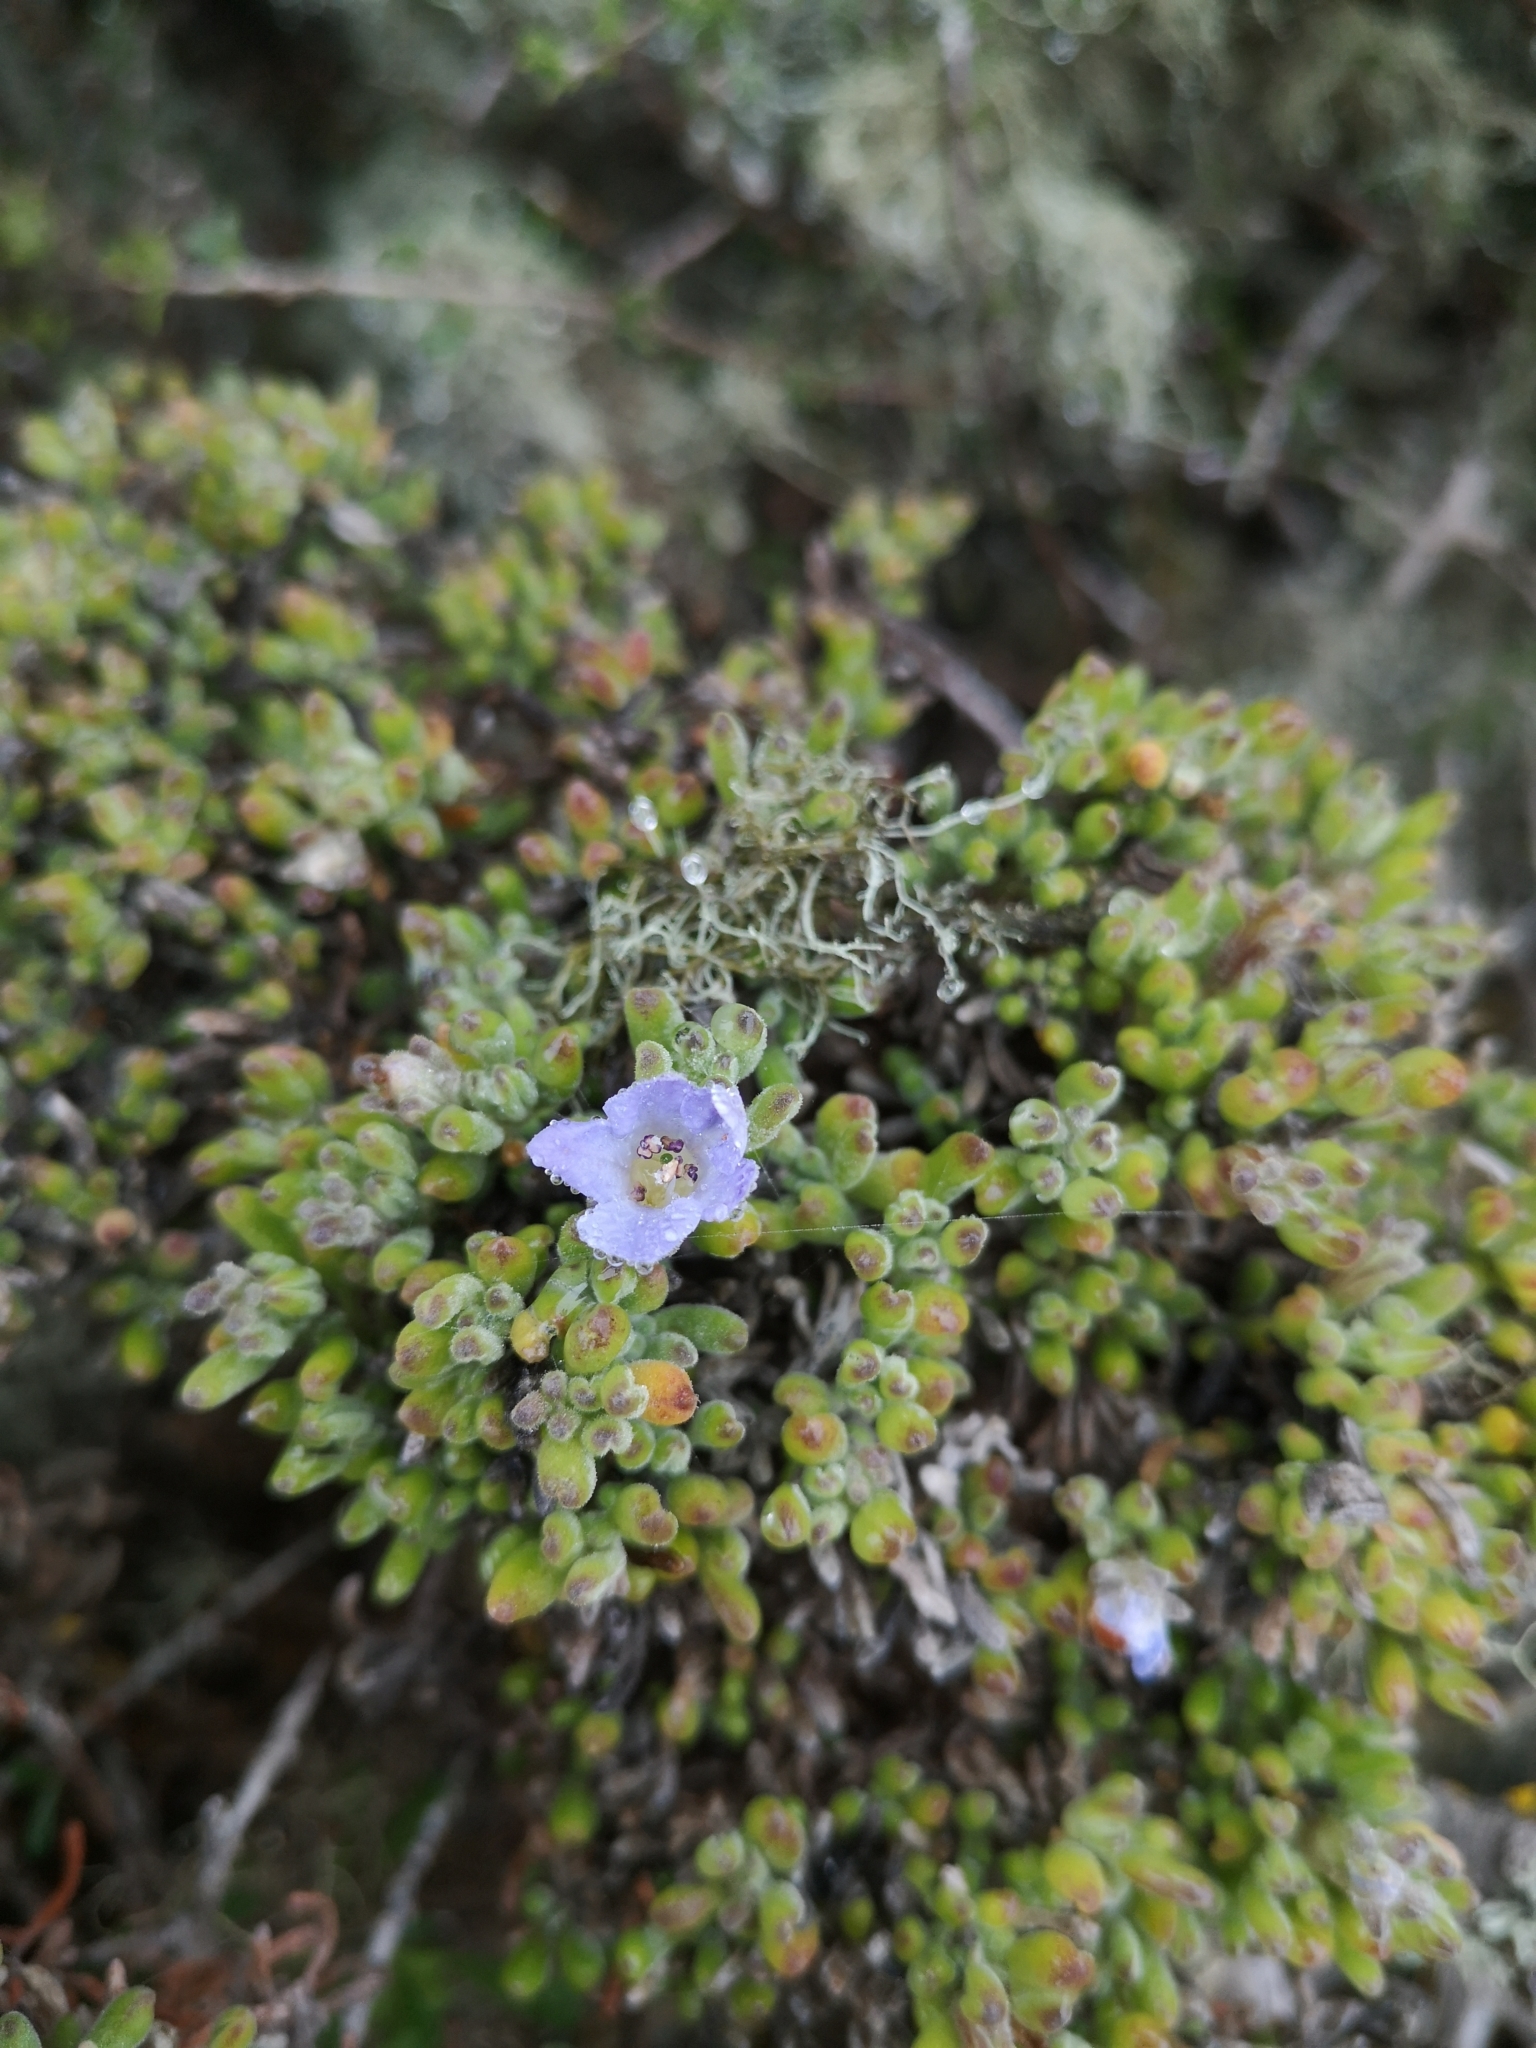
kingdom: Plantae
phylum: Tracheophyta
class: Magnoliopsida
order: Solanales
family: Solanaceae
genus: Nolana
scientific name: Nolana ramosissima
